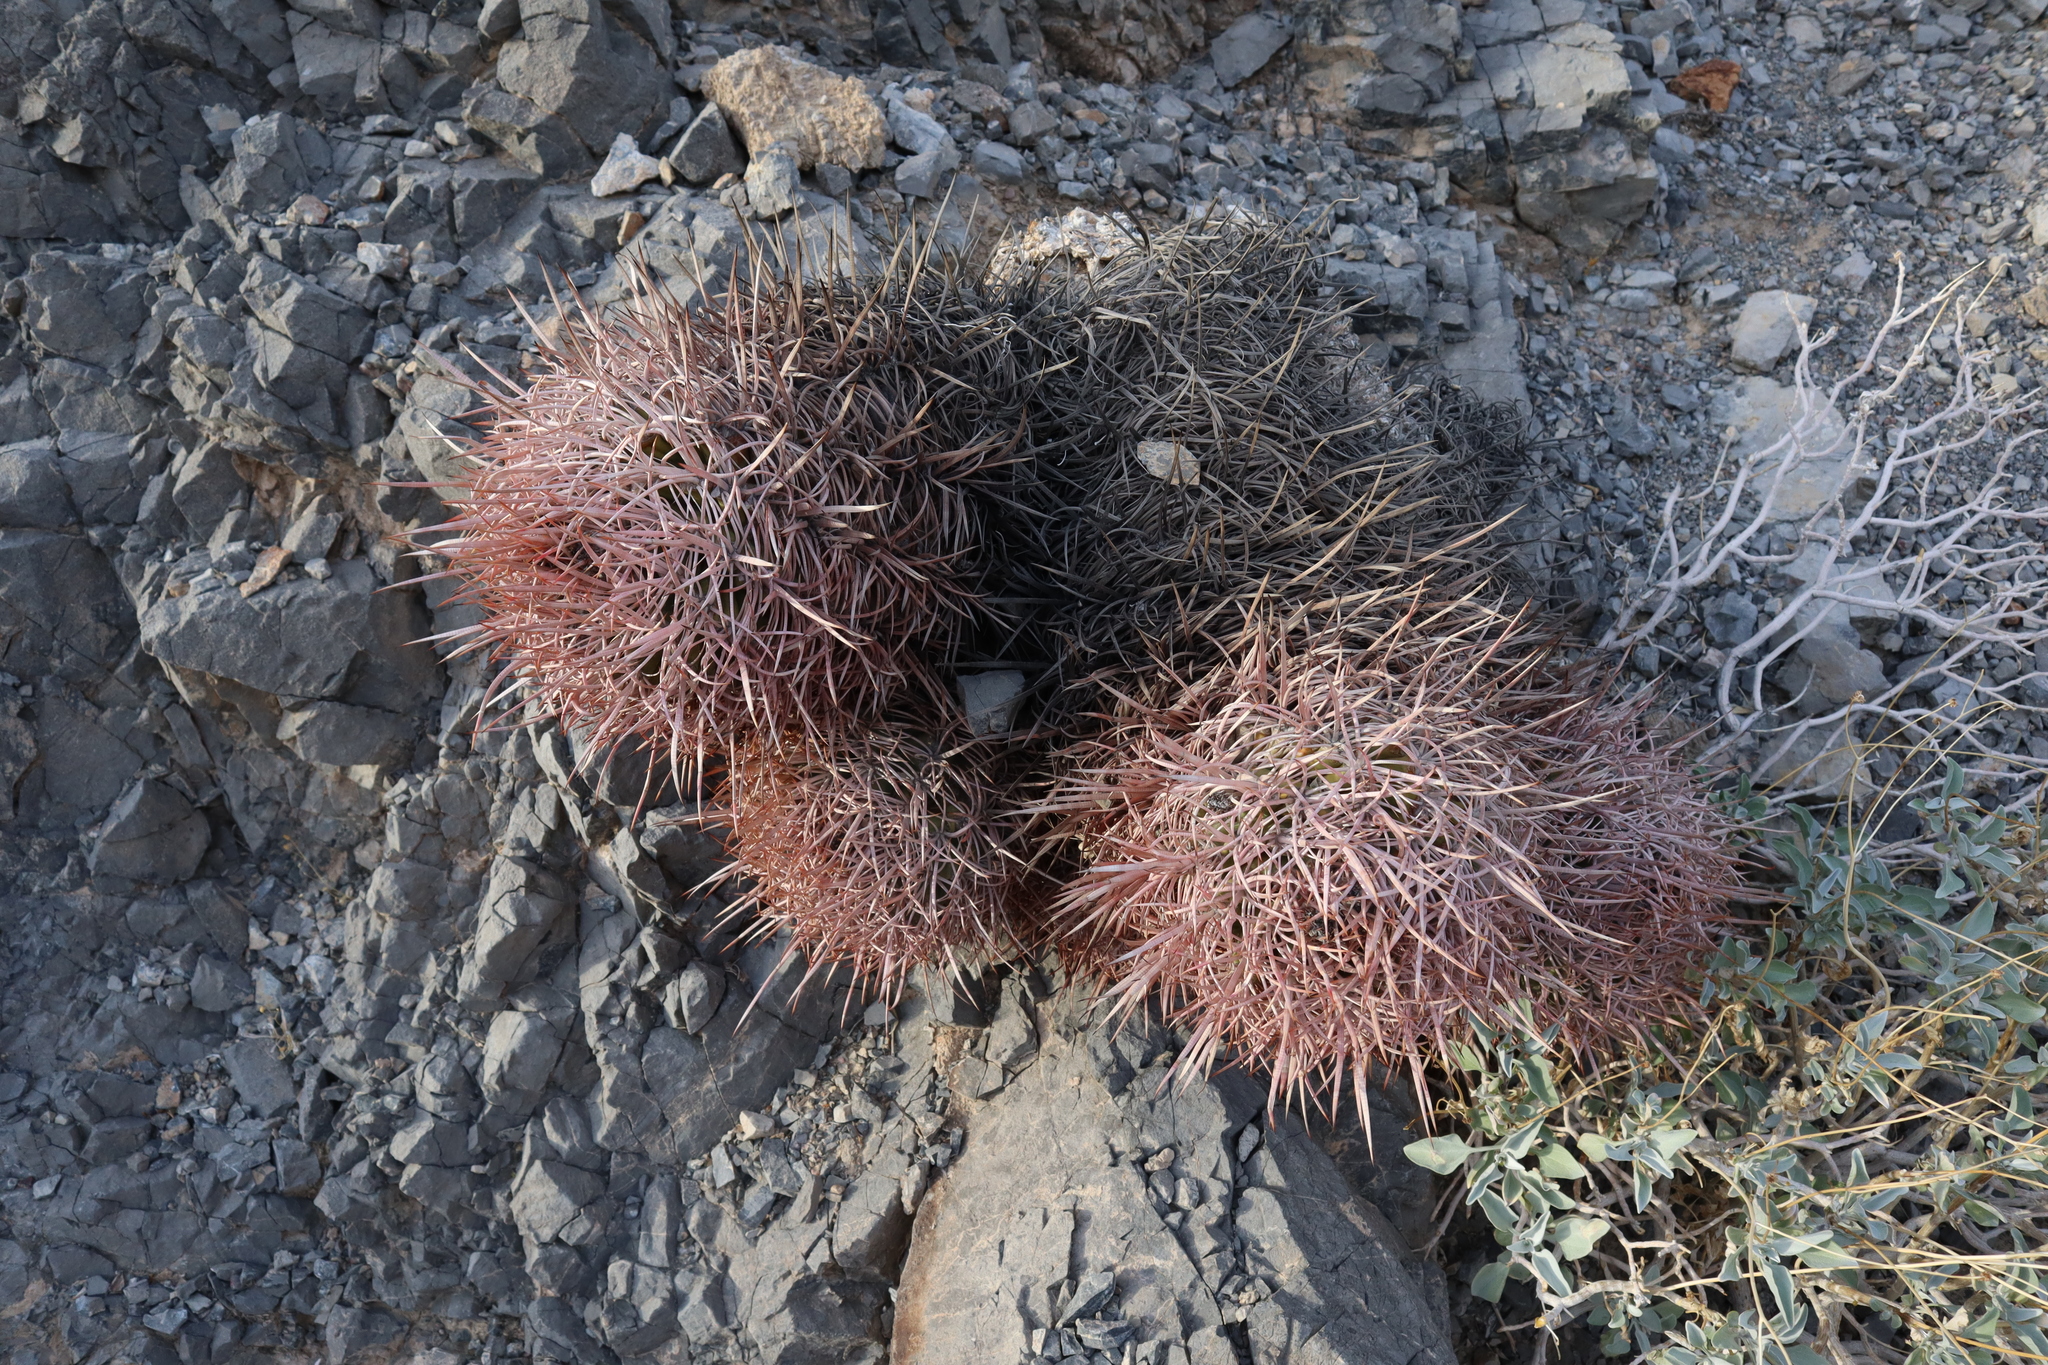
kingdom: Plantae
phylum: Tracheophyta
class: Magnoliopsida
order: Caryophyllales
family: Cactaceae
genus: Echinocactus
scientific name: Echinocactus polycephalus
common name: Cottontop cactus
